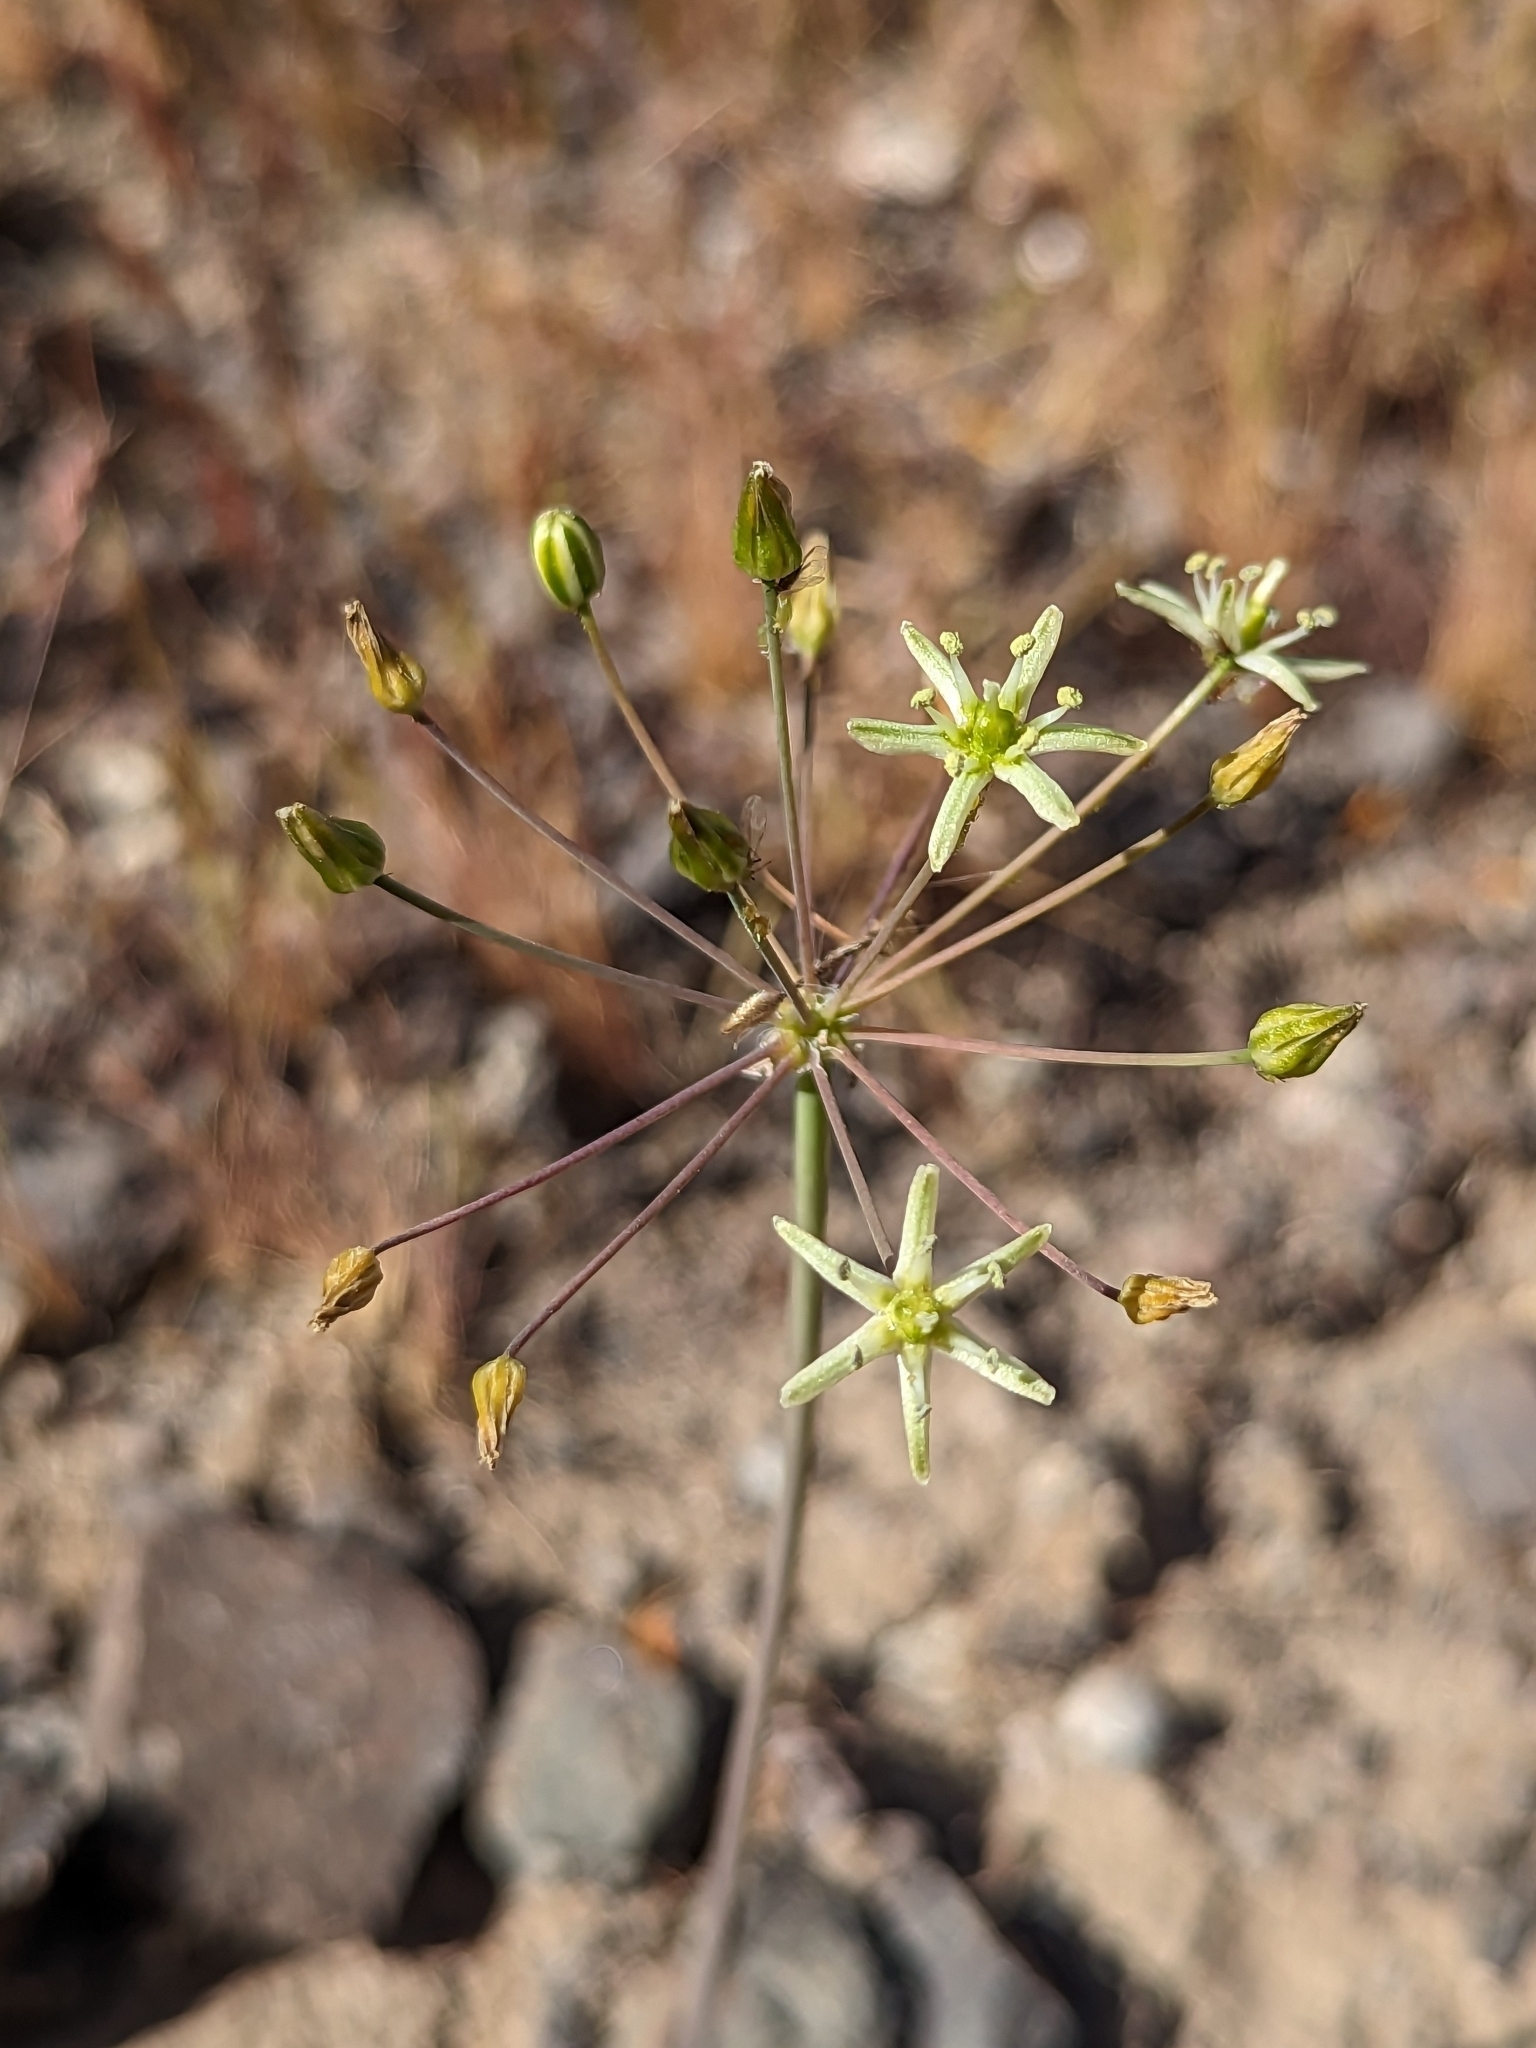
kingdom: Plantae
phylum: Tracheophyta
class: Liliopsida
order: Asparagales
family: Asparagaceae
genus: Muilla
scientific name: Muilla maritima
